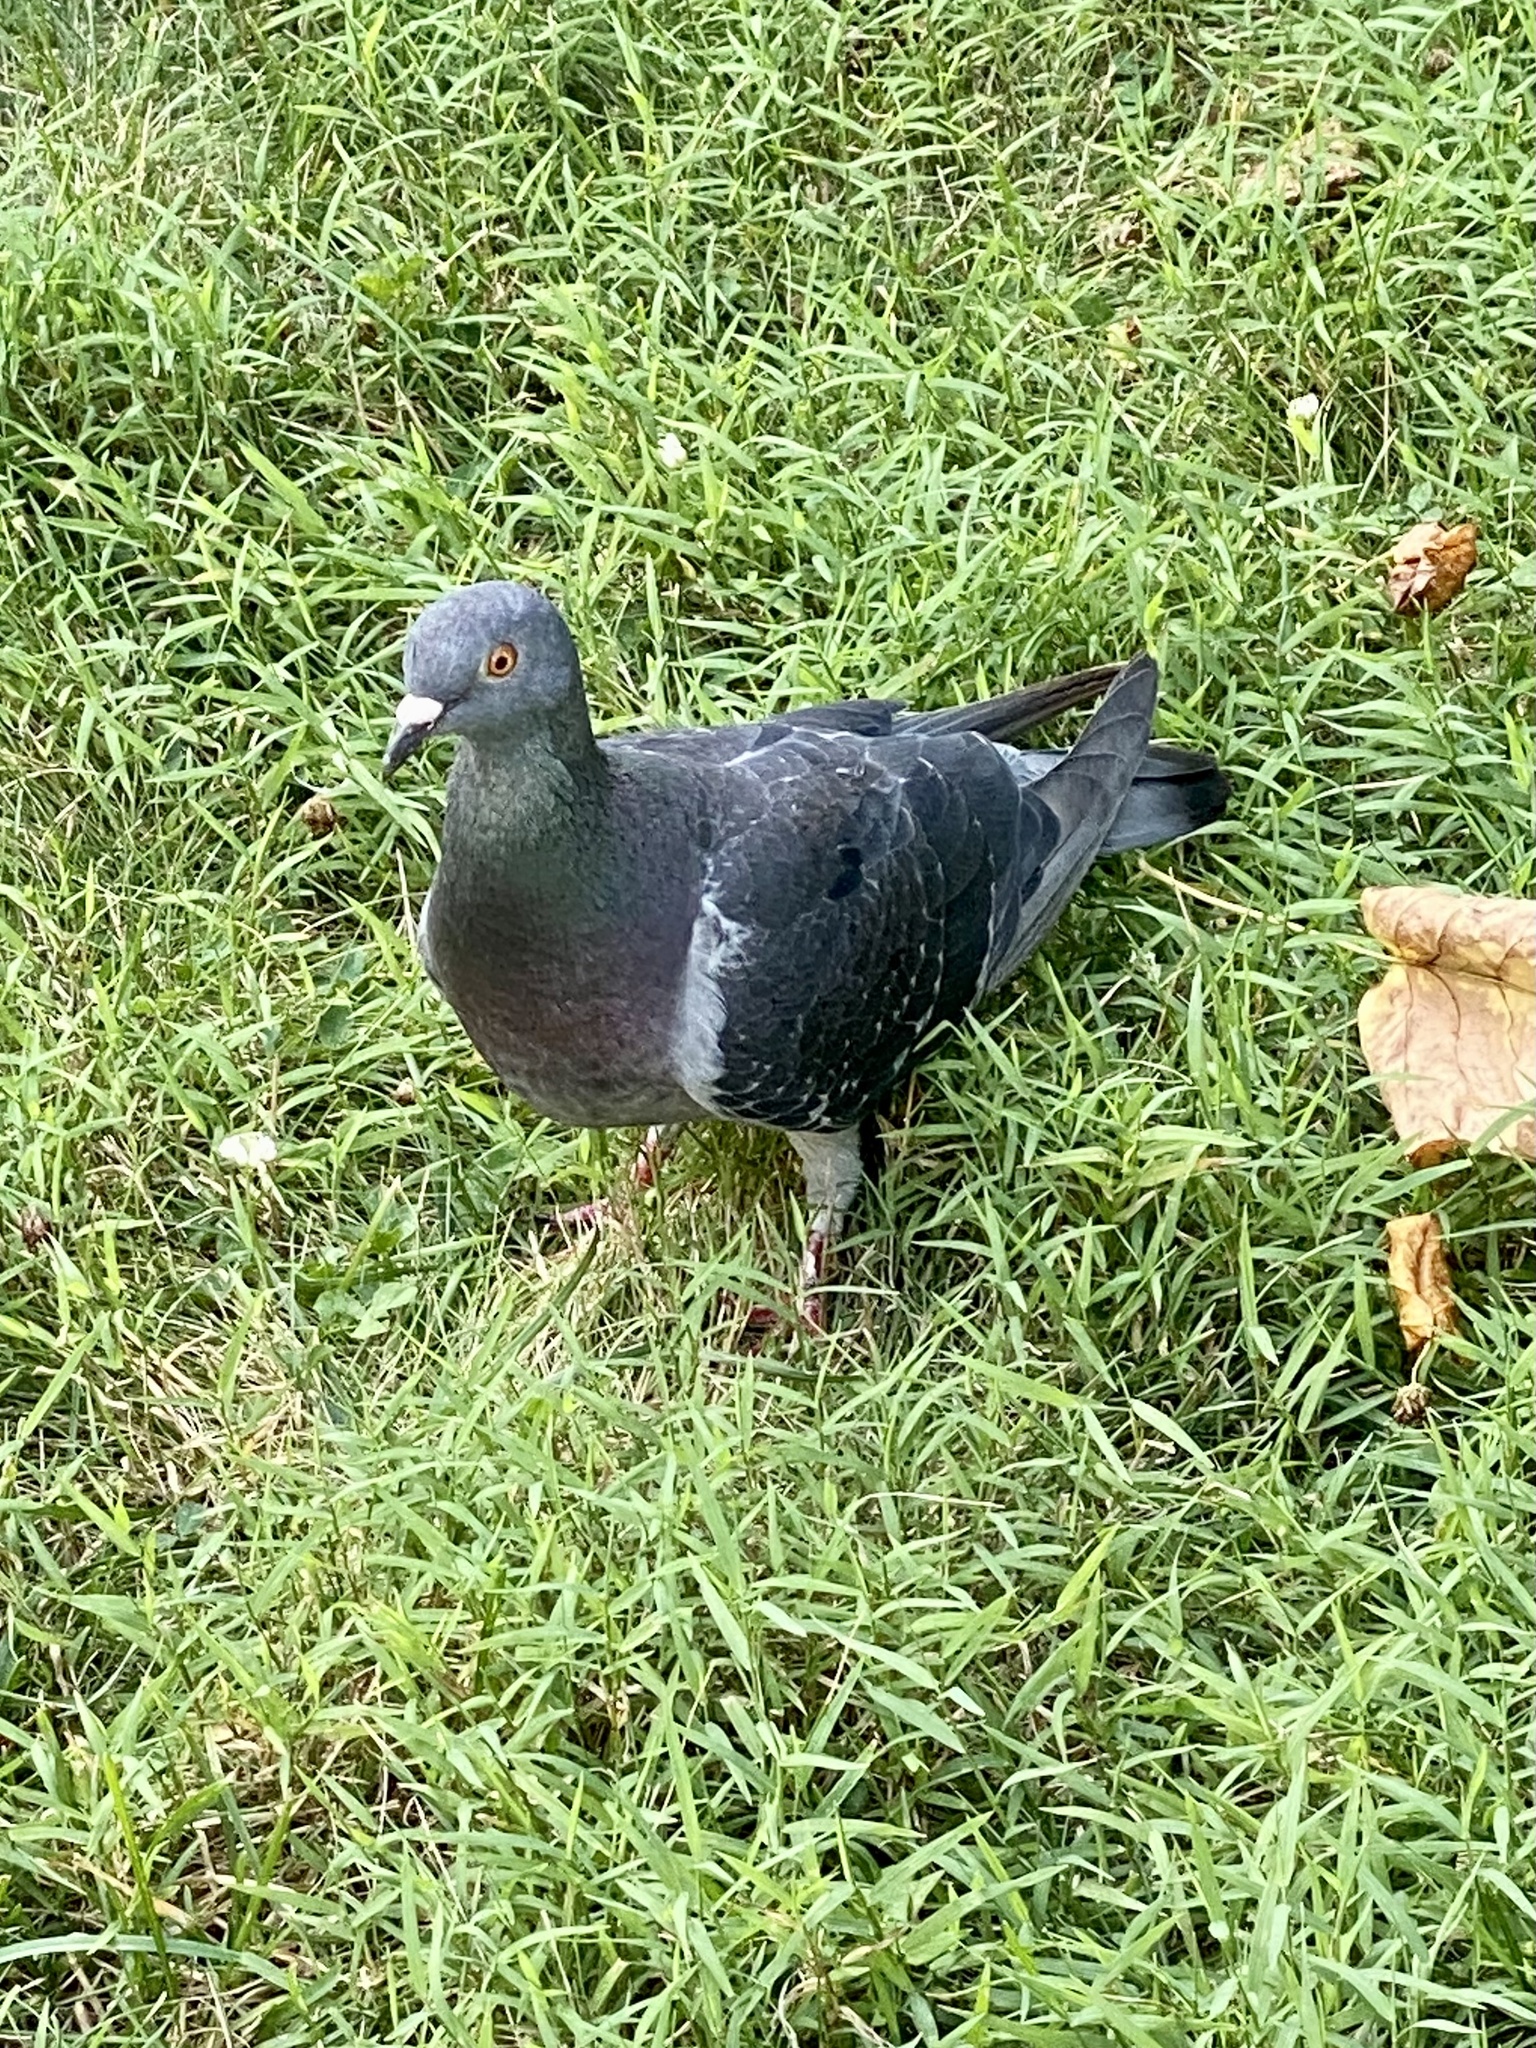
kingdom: Animalia
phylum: Chordata
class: Aves
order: Columbiformes
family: Columbidae
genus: Columba
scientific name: Columba livia
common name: Rock pigeon
